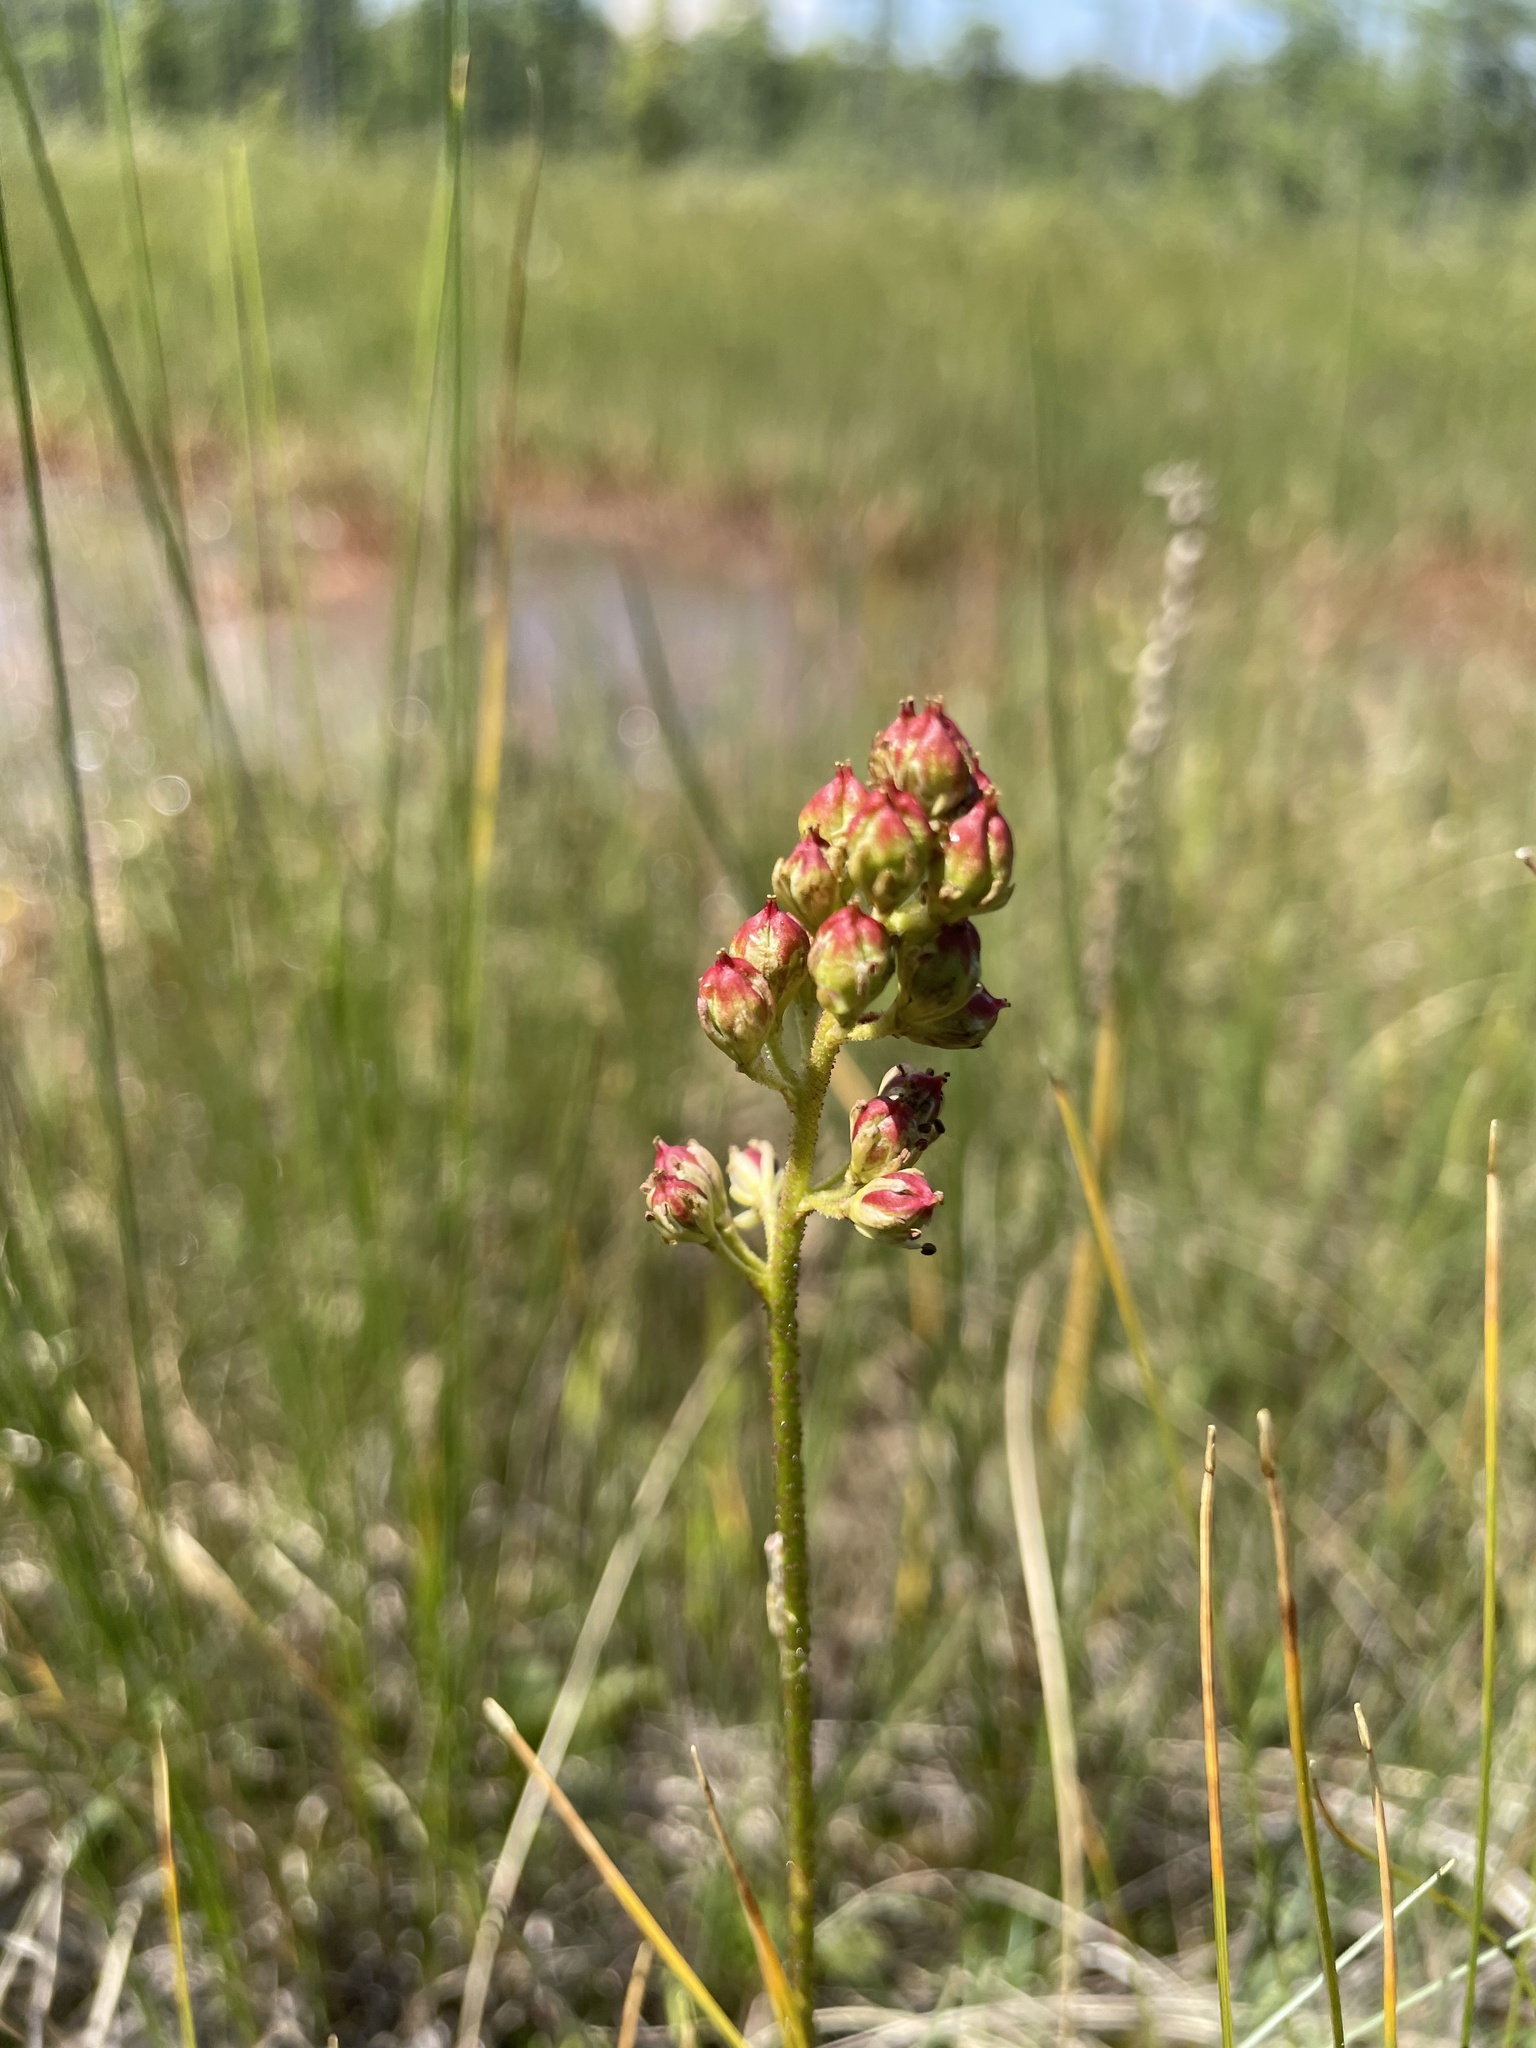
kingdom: Plantae
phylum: Tracheophyta
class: Liliopsida
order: Alismatales
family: Tofieldiaceae
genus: Triantha
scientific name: Triantha glutinosa
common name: Glutinous tofieldia
